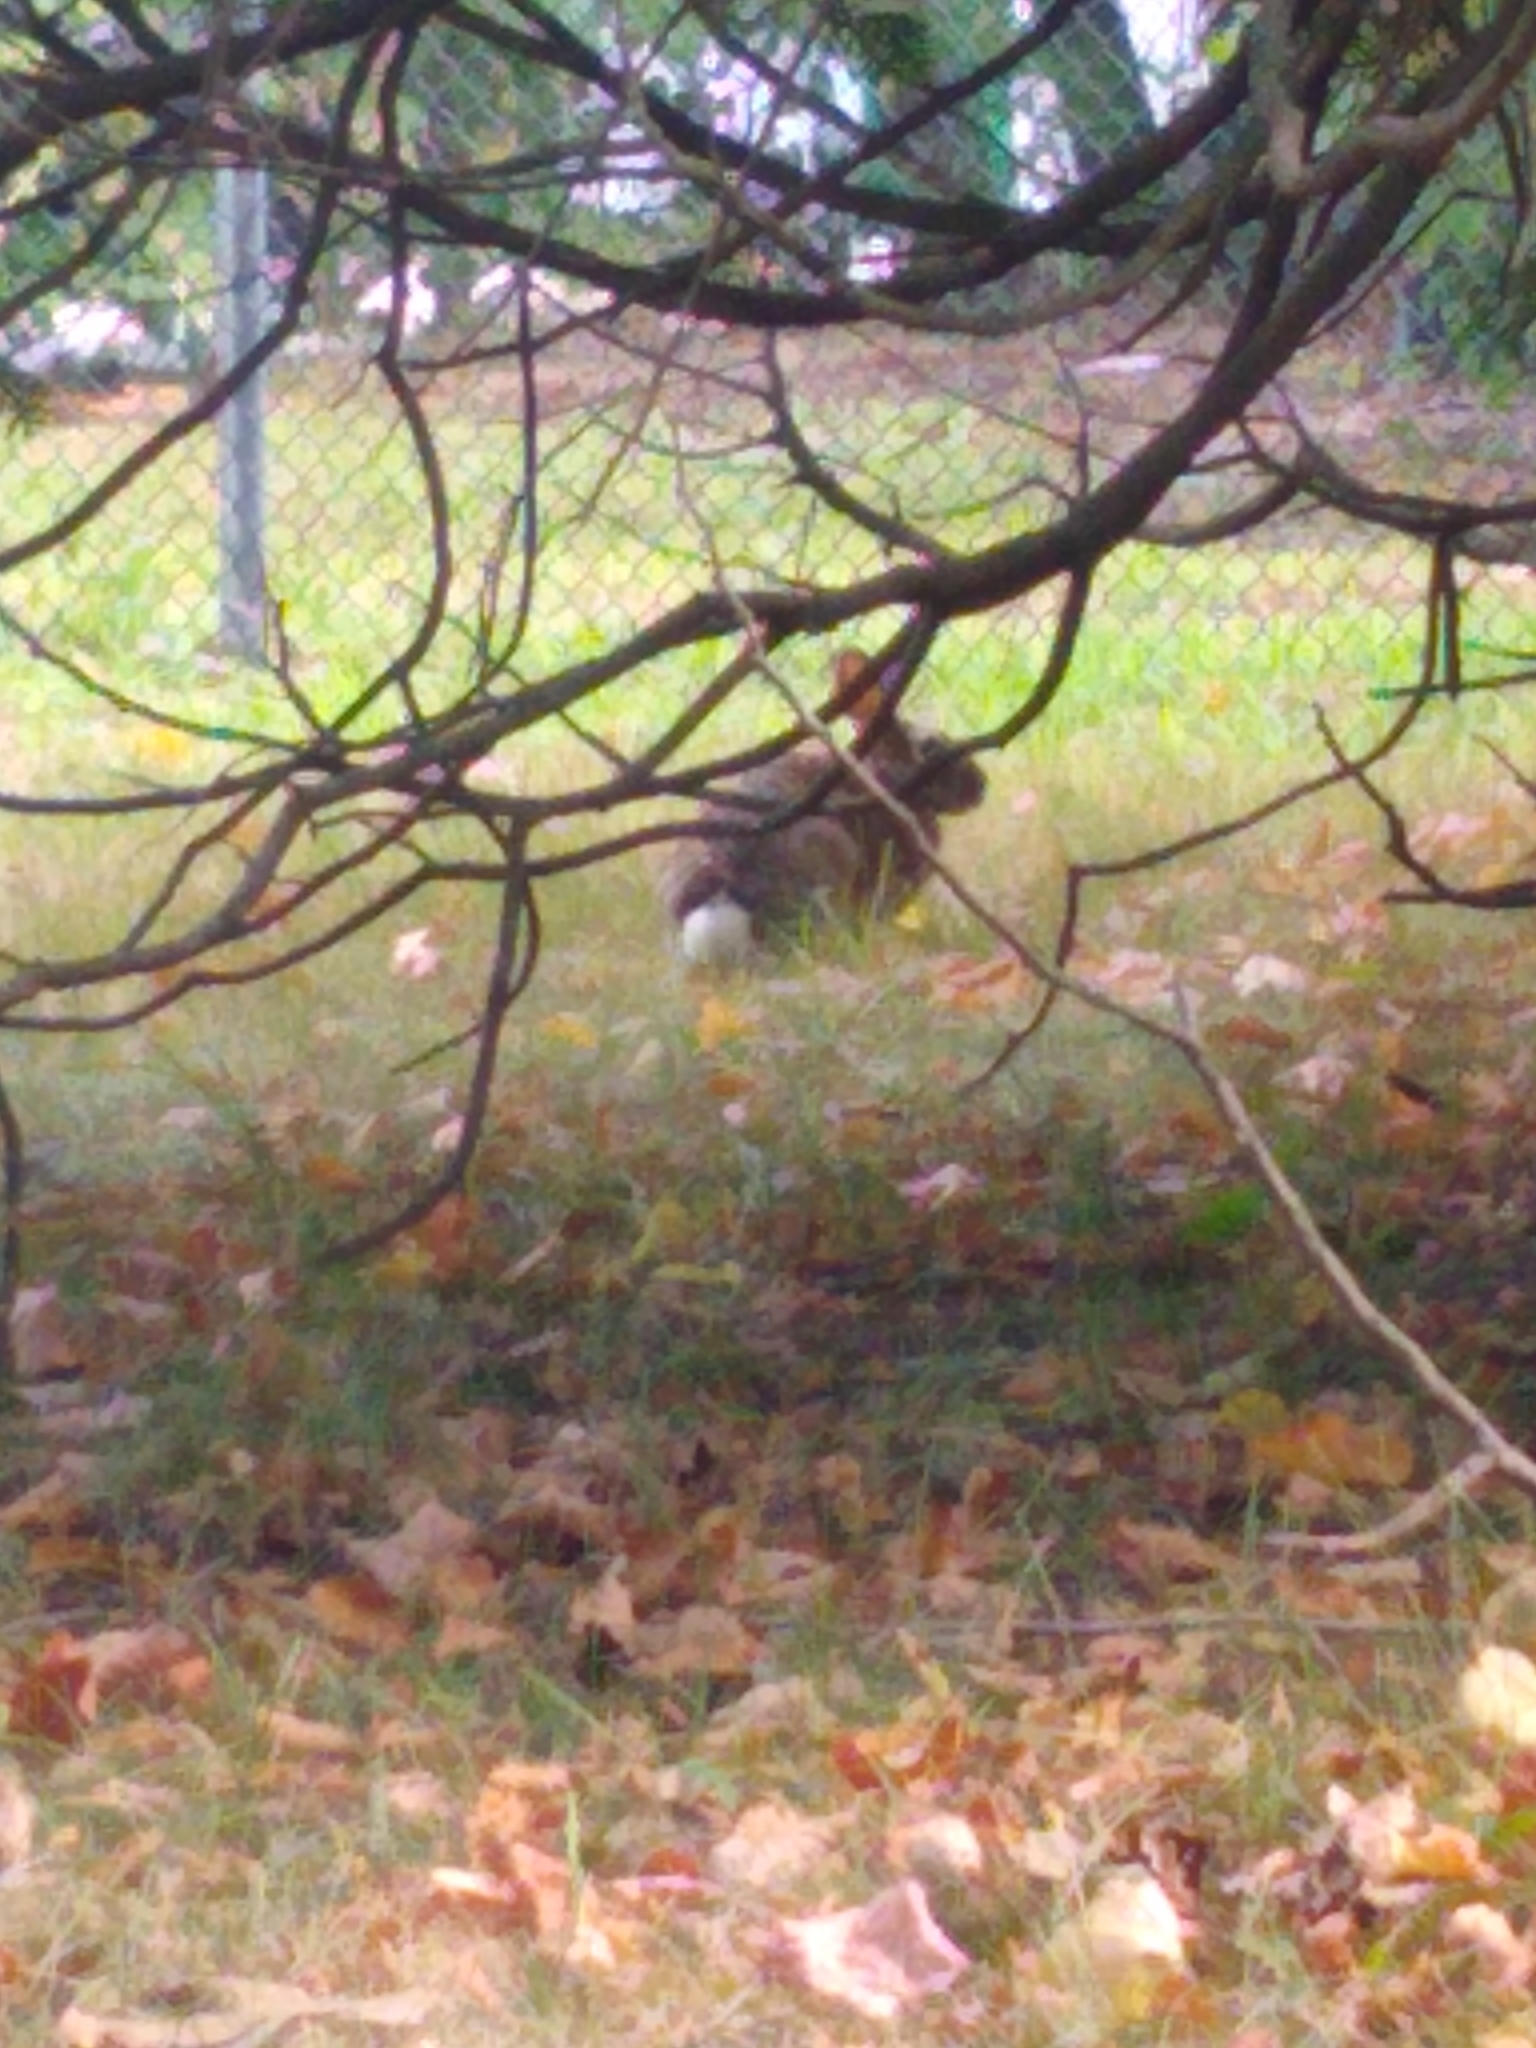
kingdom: Animalia
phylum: Chordata
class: Mammalia
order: Lagomorpha
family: Leporidae
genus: Sylvilagus
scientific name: Sylvilagus floridanus
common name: Eastern cottontail
